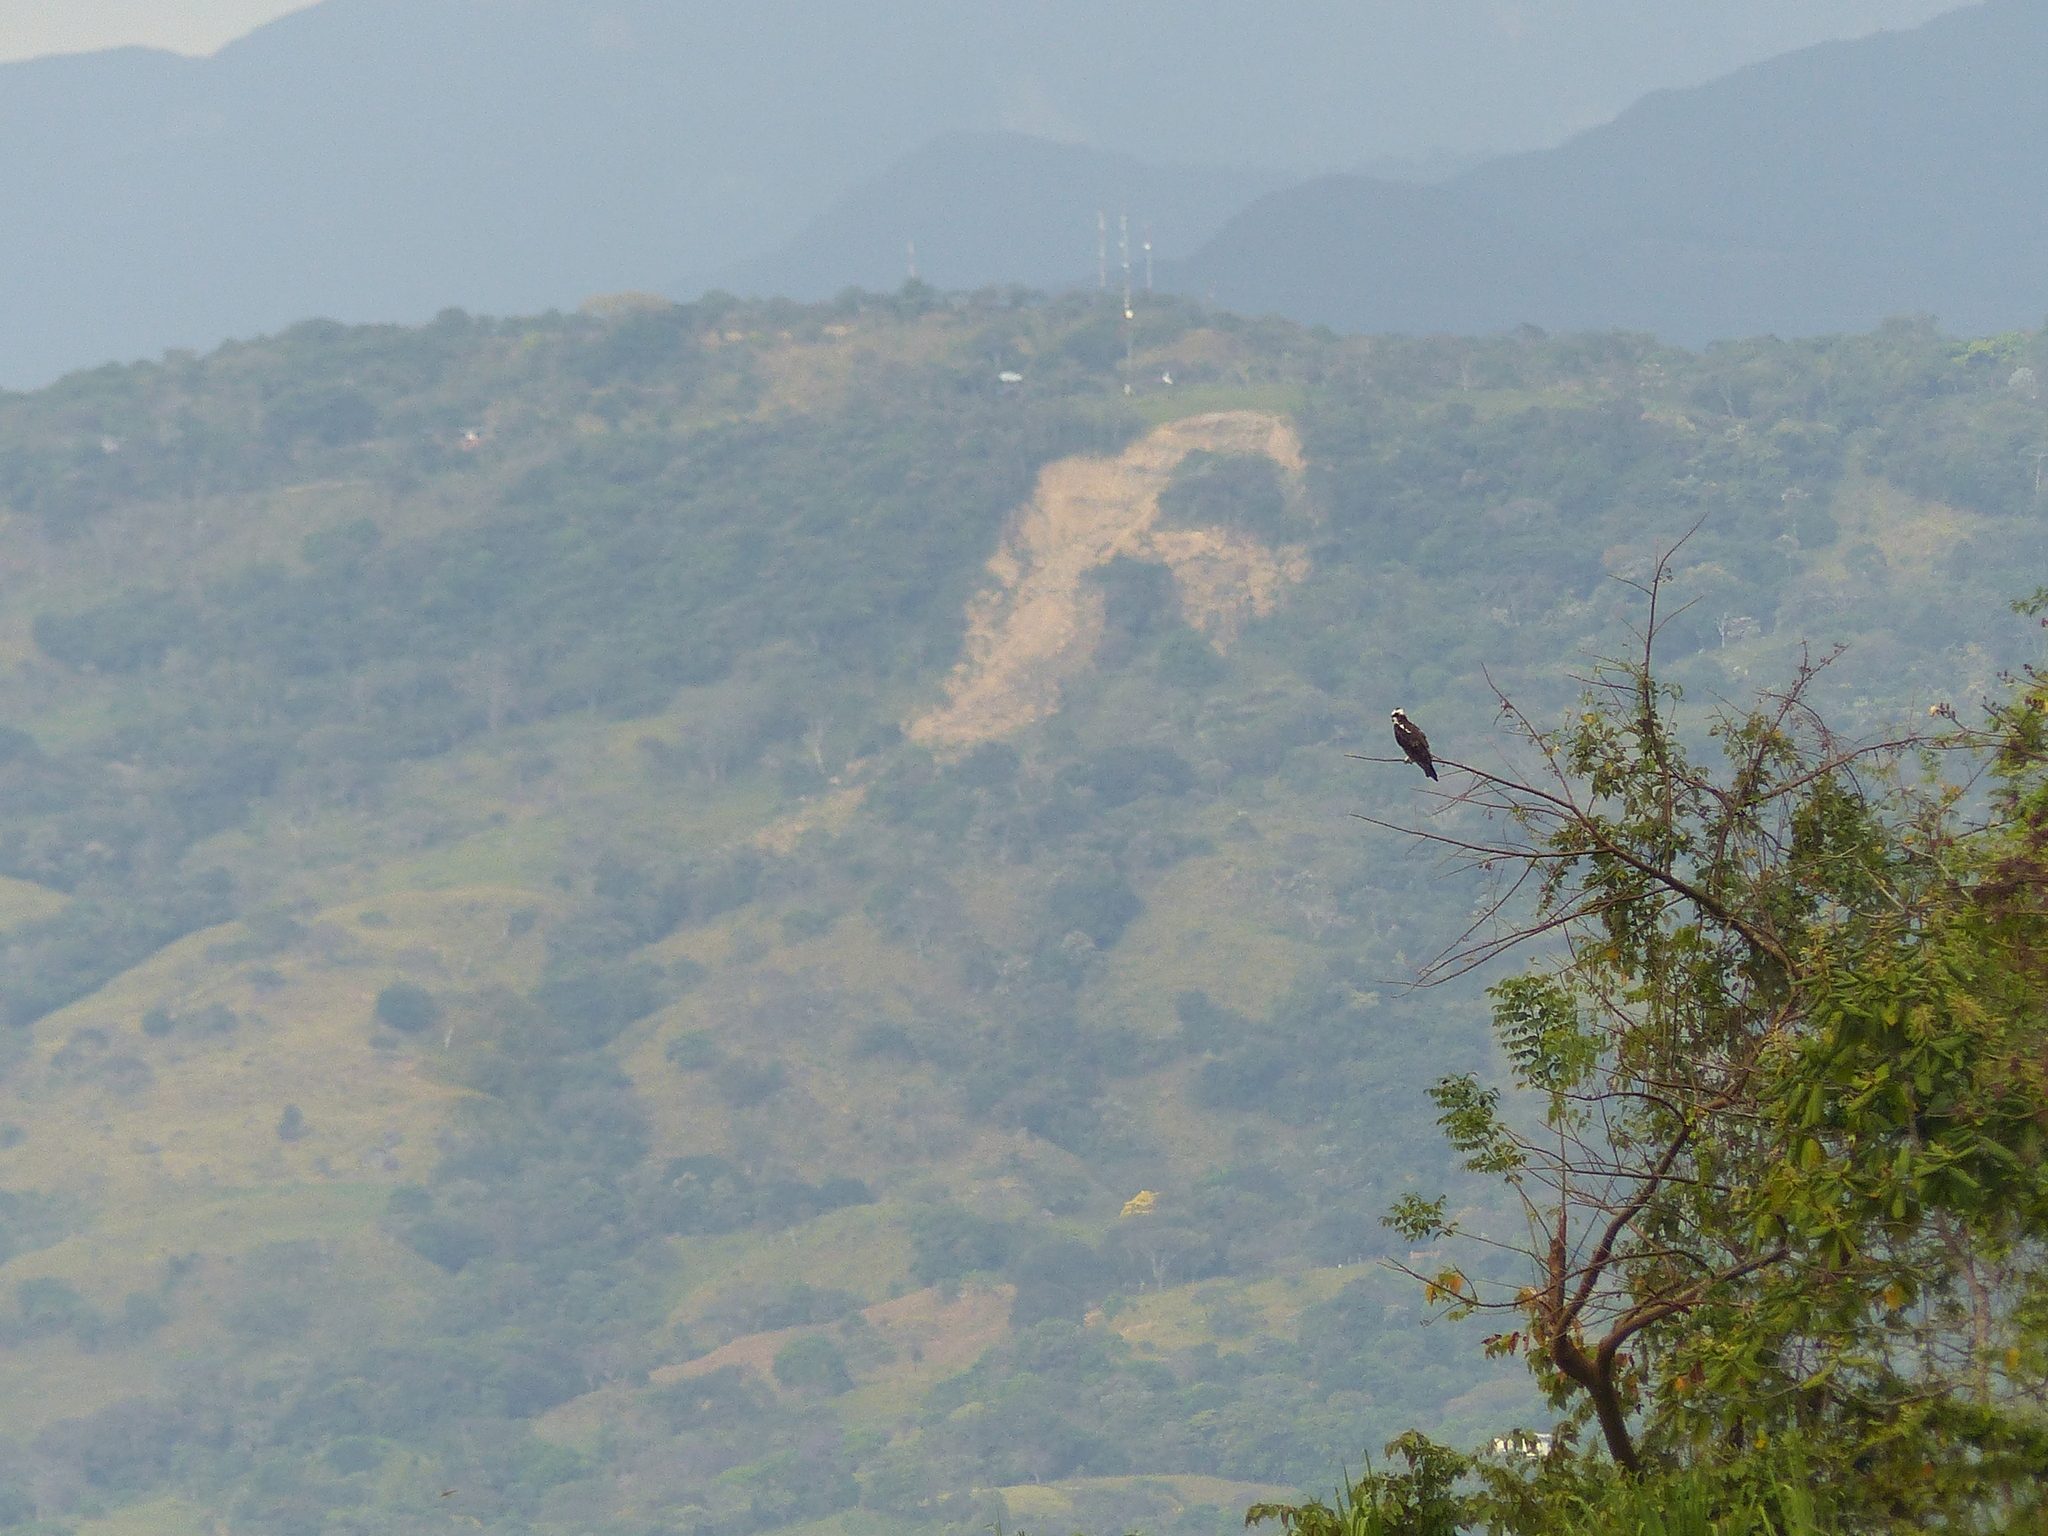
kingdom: Animalia
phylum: Chordata
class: Aves
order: Accipitriformes
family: Pandionidae
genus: Pandion
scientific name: Pandion haliaetus
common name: Osprey
